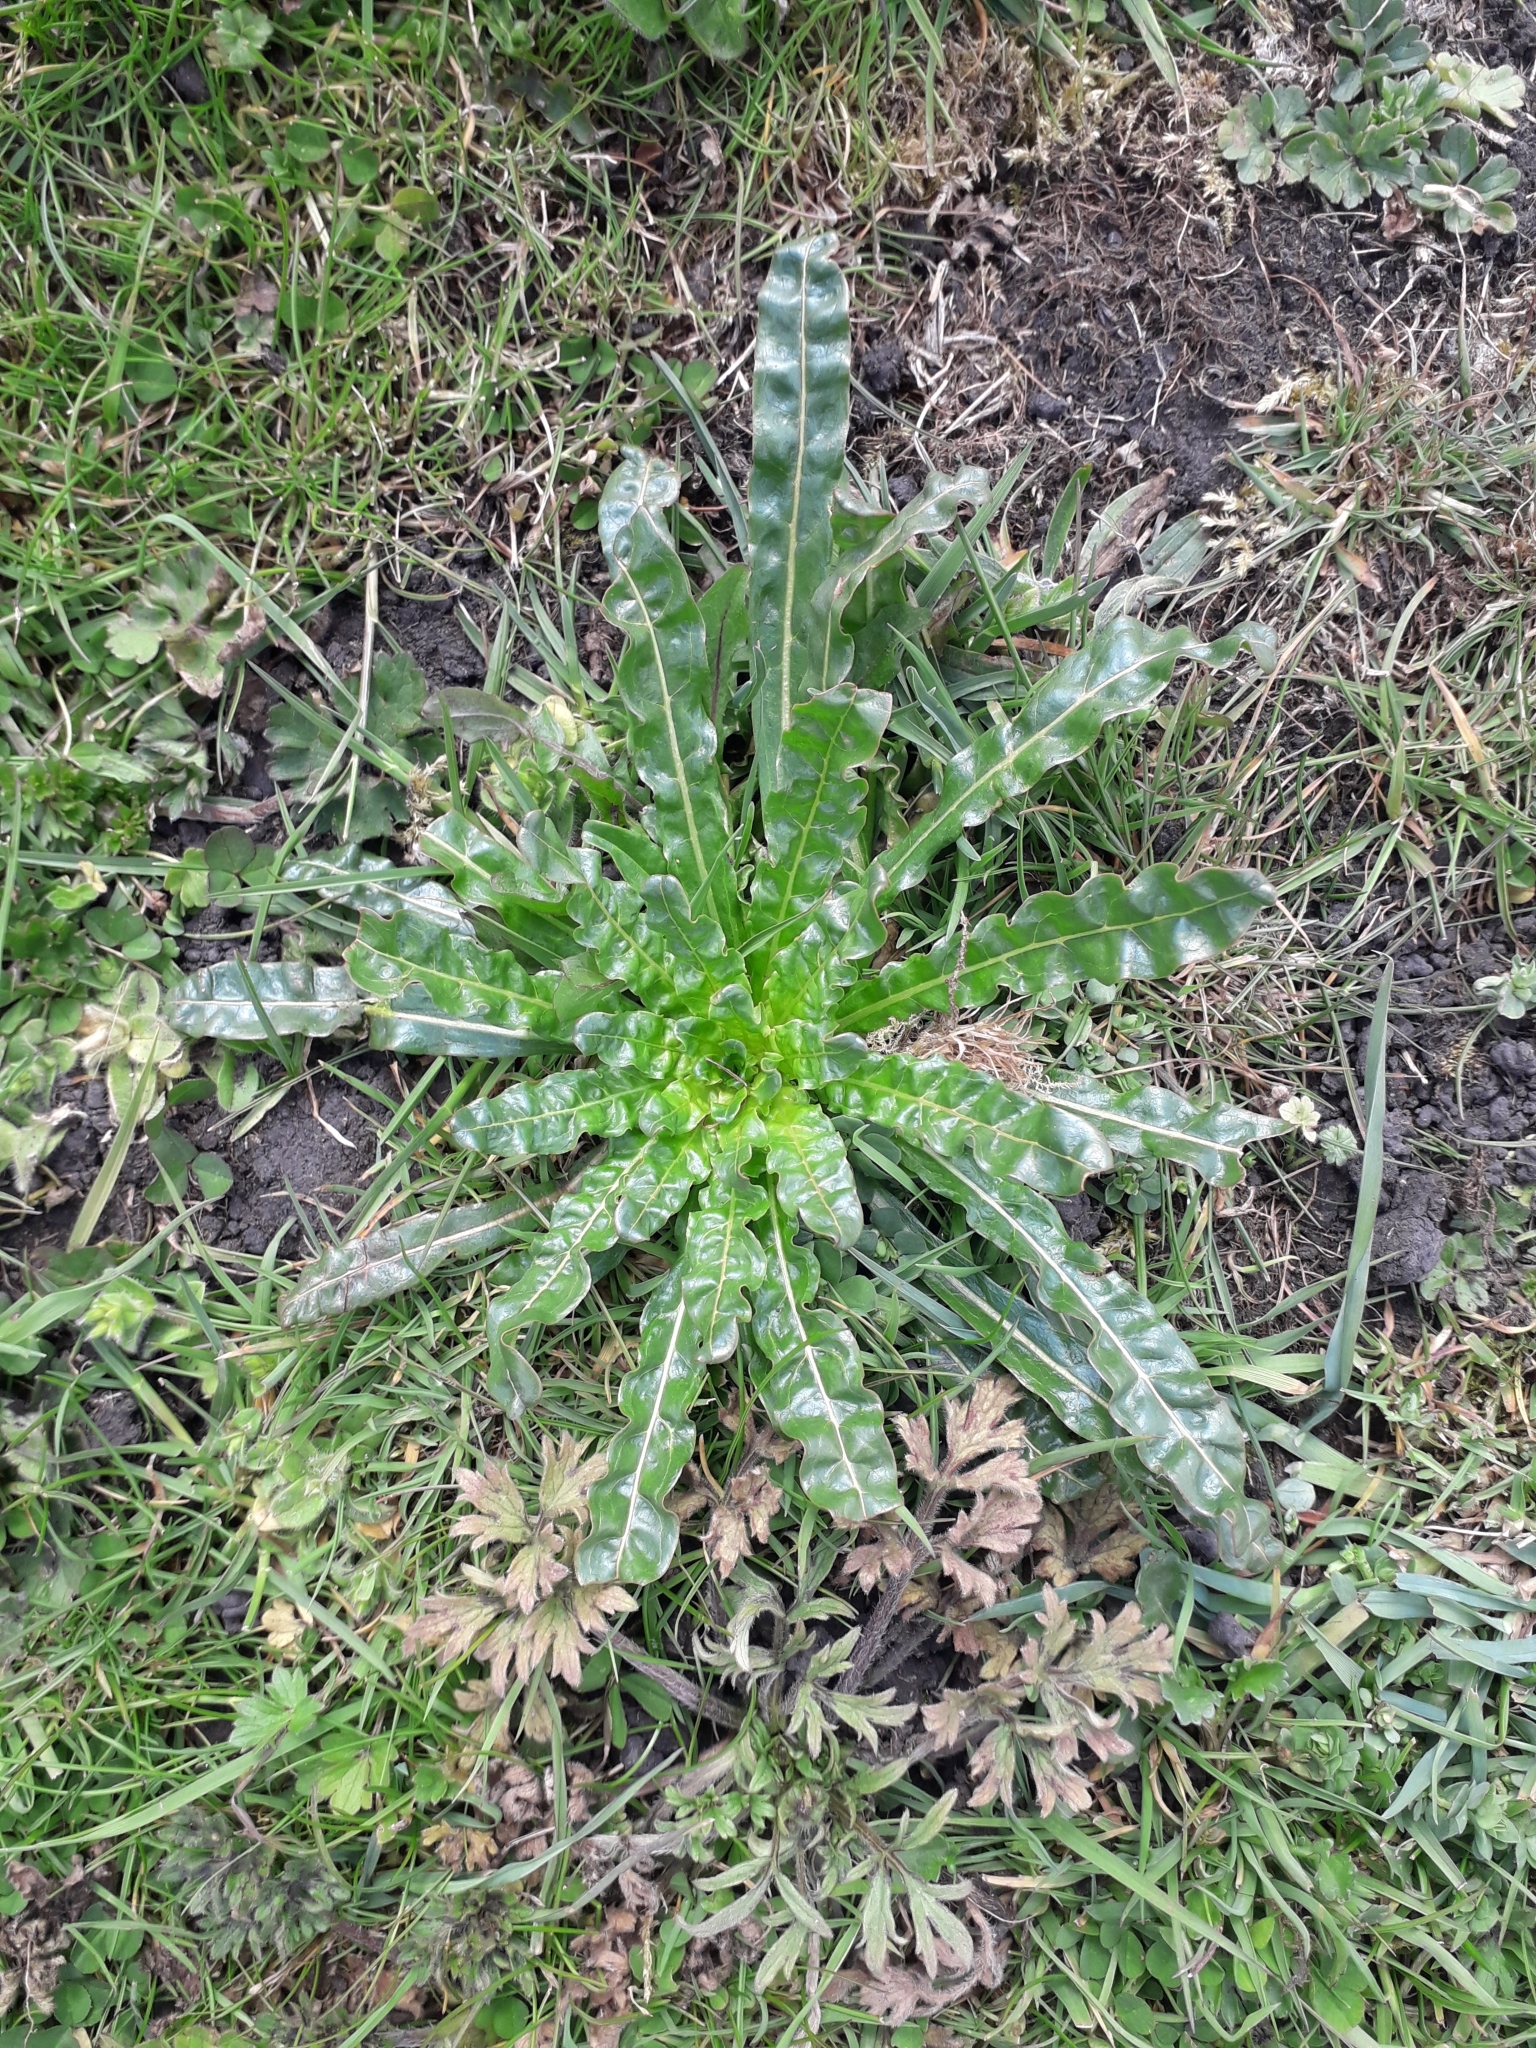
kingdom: Plantae
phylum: Tracheophyta
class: Magnoliopsida
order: Brassicales
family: Resedaceae
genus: Reseda
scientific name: Reseda luteola
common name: Weld
